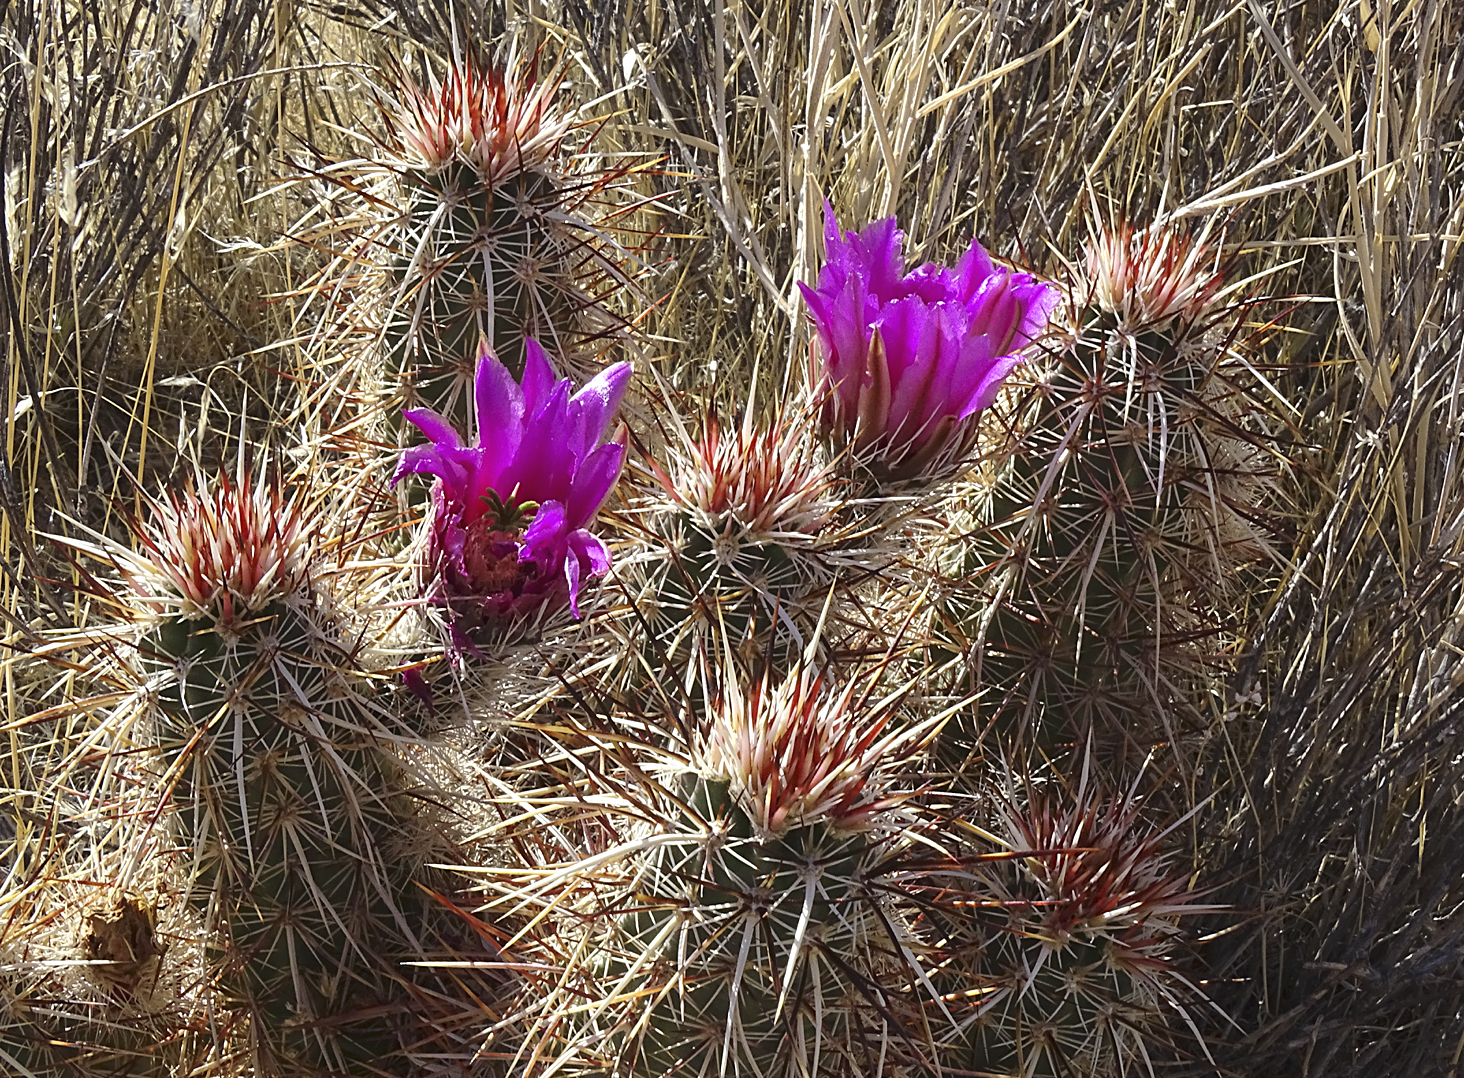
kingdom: Plantae
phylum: Tracheophyta
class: Magnoliopsida
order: Caryophyllales
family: Cactaceae
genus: Echinocereus
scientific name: Echinocereus engelmannii
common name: Engelmann's hedgehog cactus
